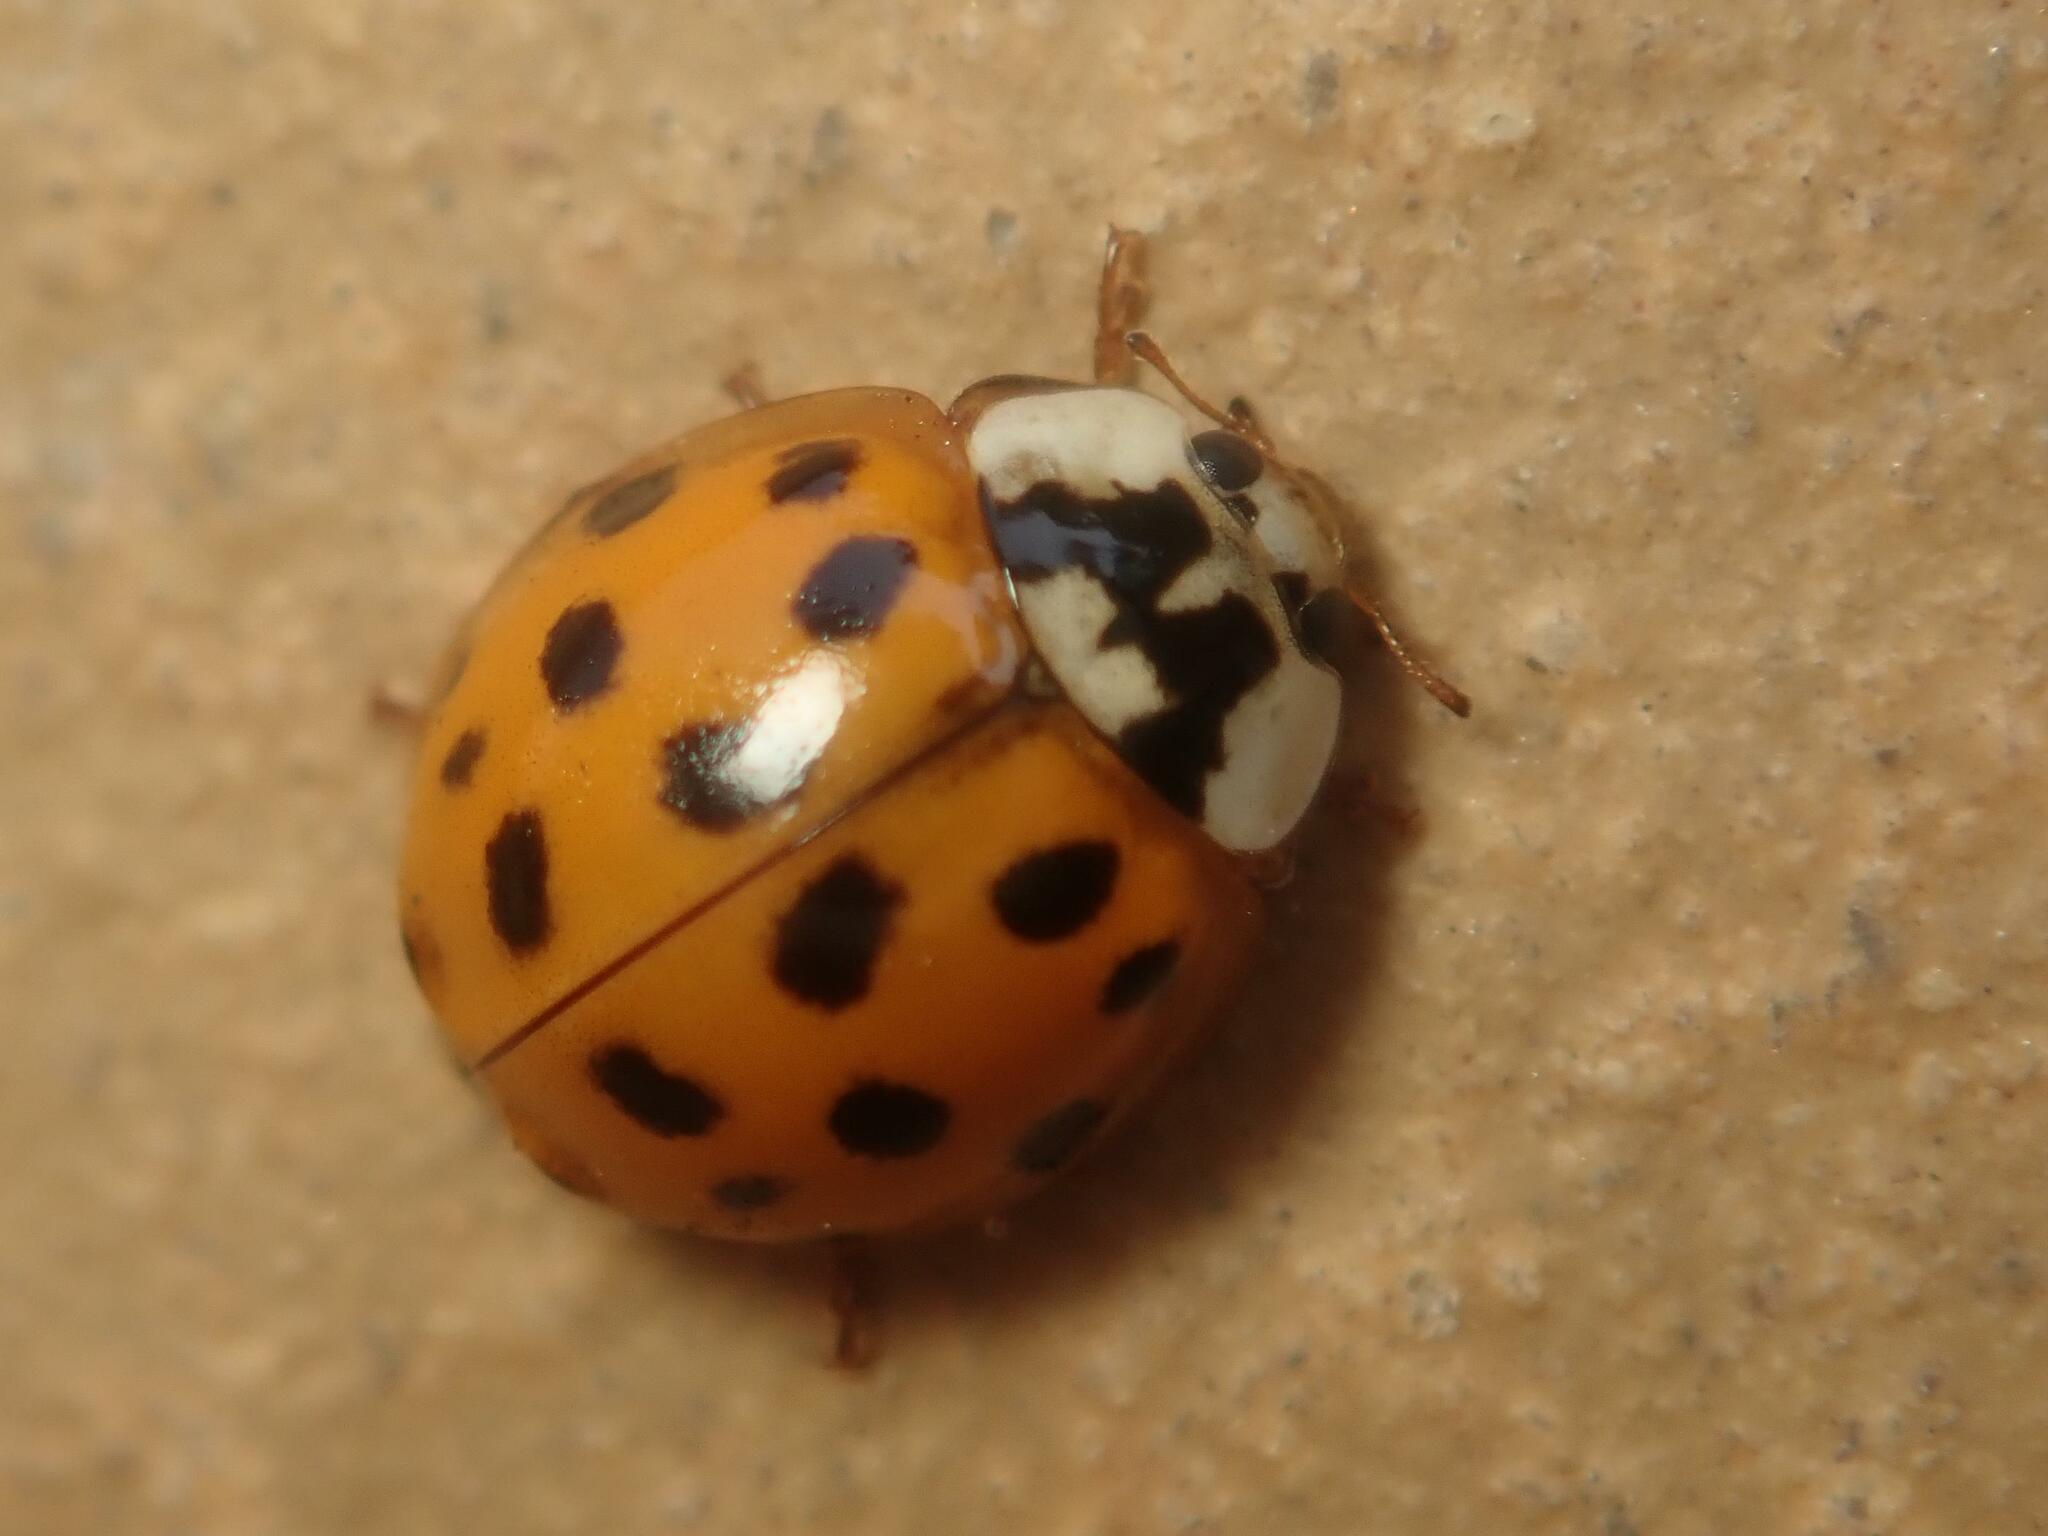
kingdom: Animalia
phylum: Arthropoda
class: Insecta
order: Coleoptera
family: Coccinellidae
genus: Harmonia
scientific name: Harmonia axyridis
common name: Harlequin ladybird
